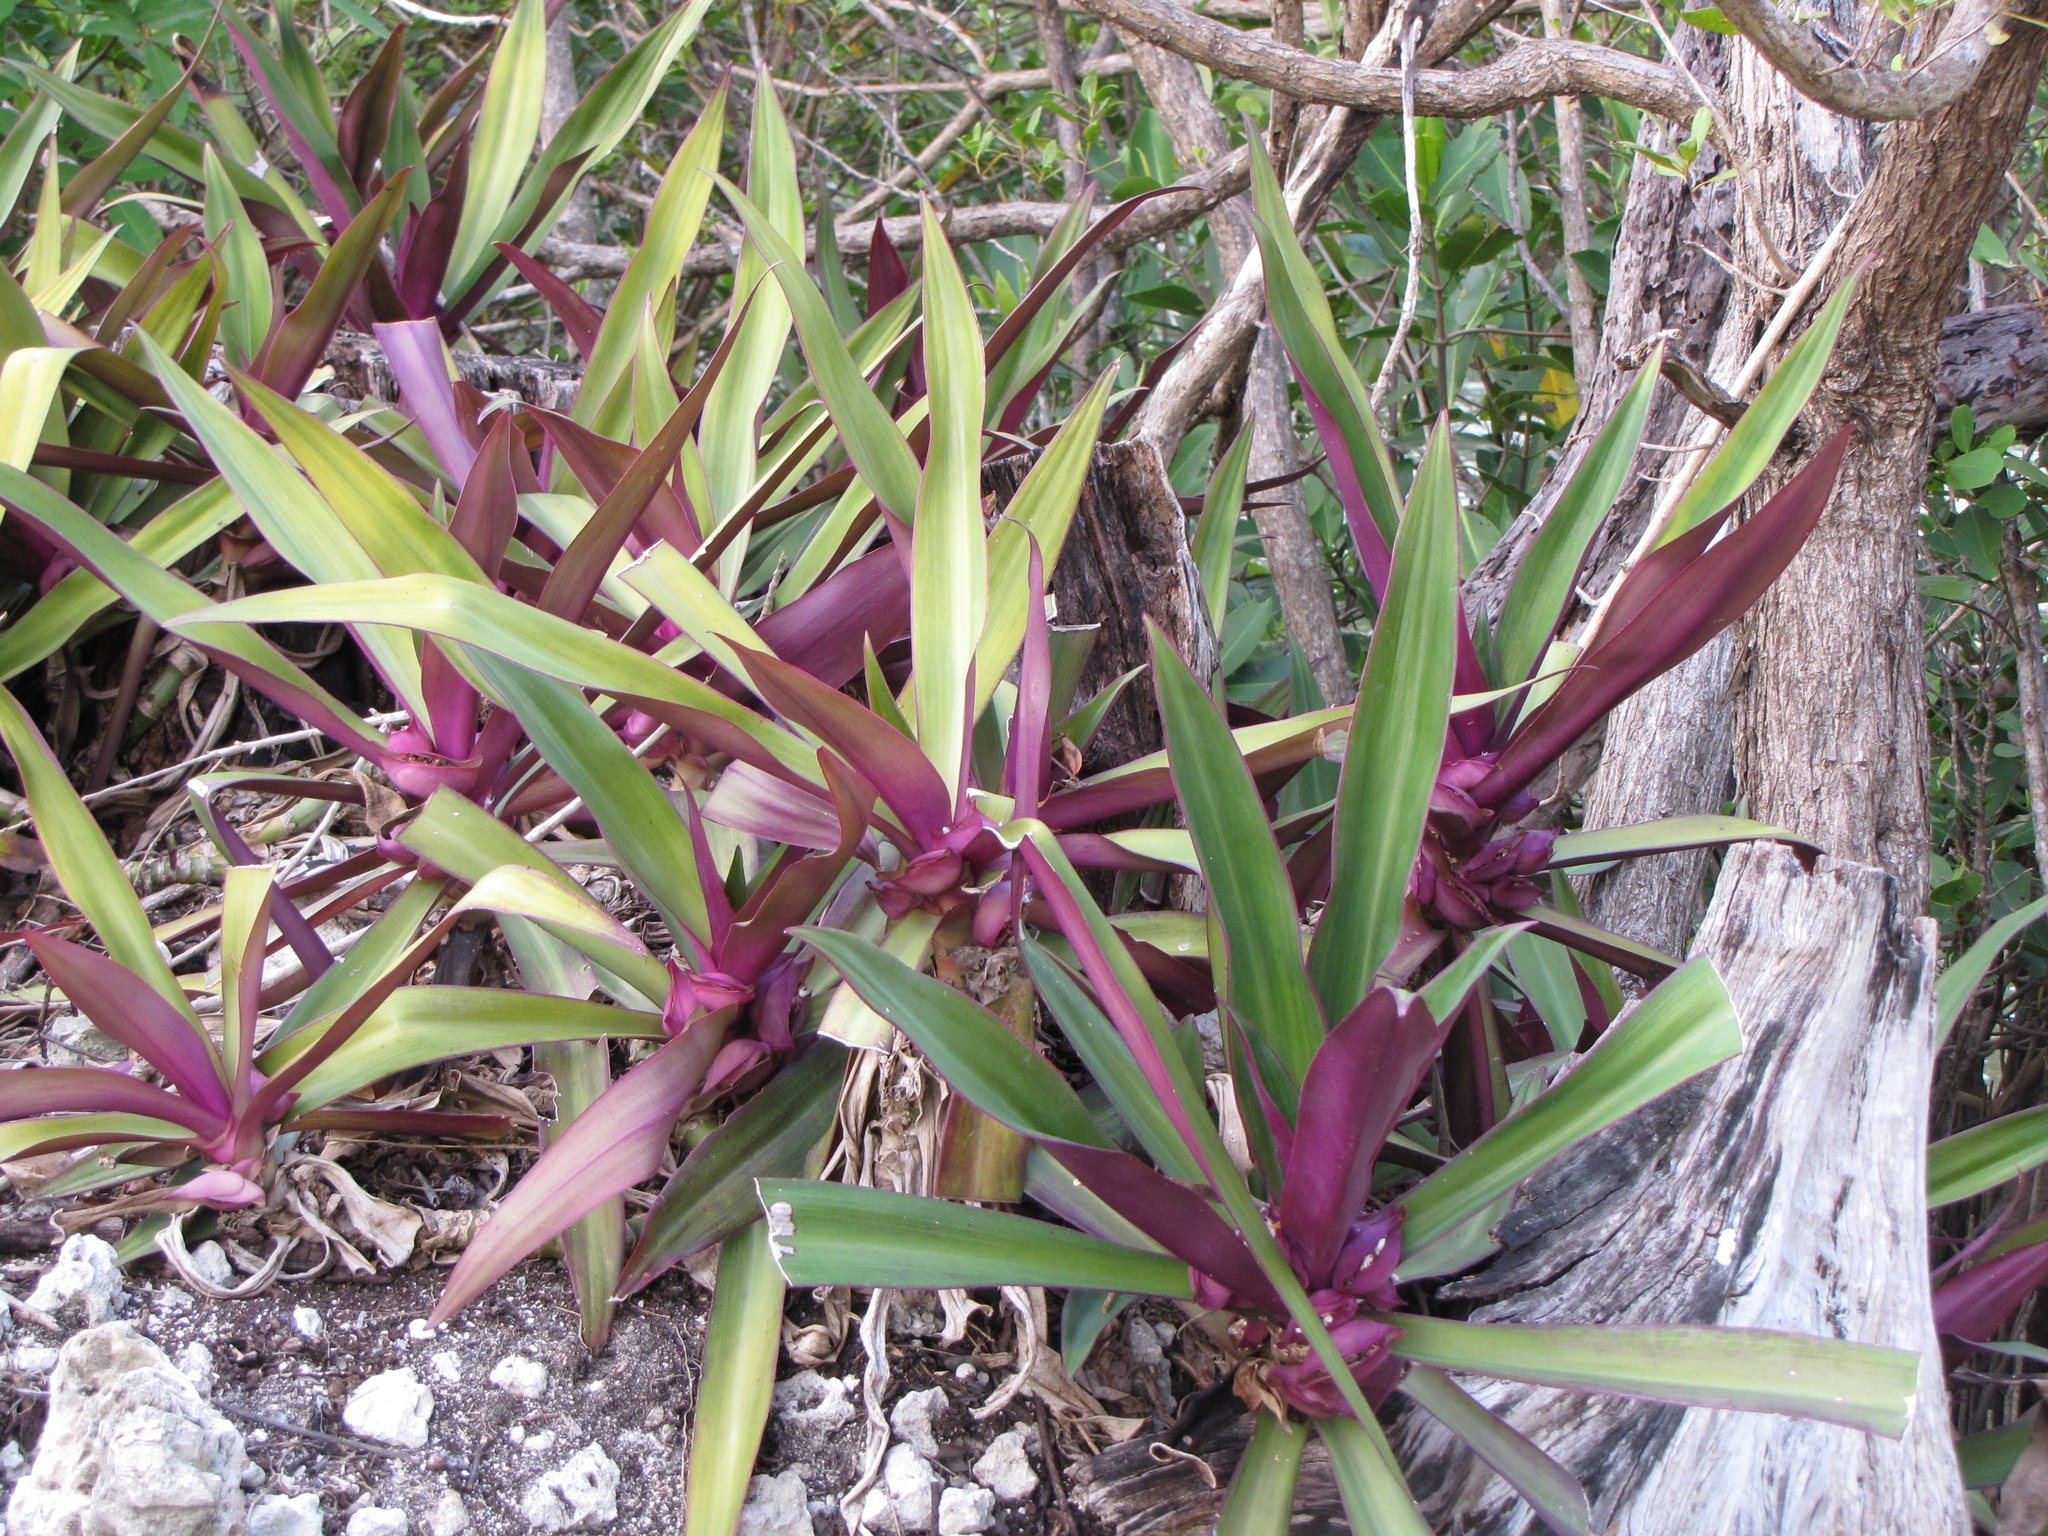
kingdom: Plantae
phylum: Tracheophyta
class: Liliopsida
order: Commelinales
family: Commelinaceae
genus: Tradescantia
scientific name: Tradescantia spathacea
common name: Boatlily
